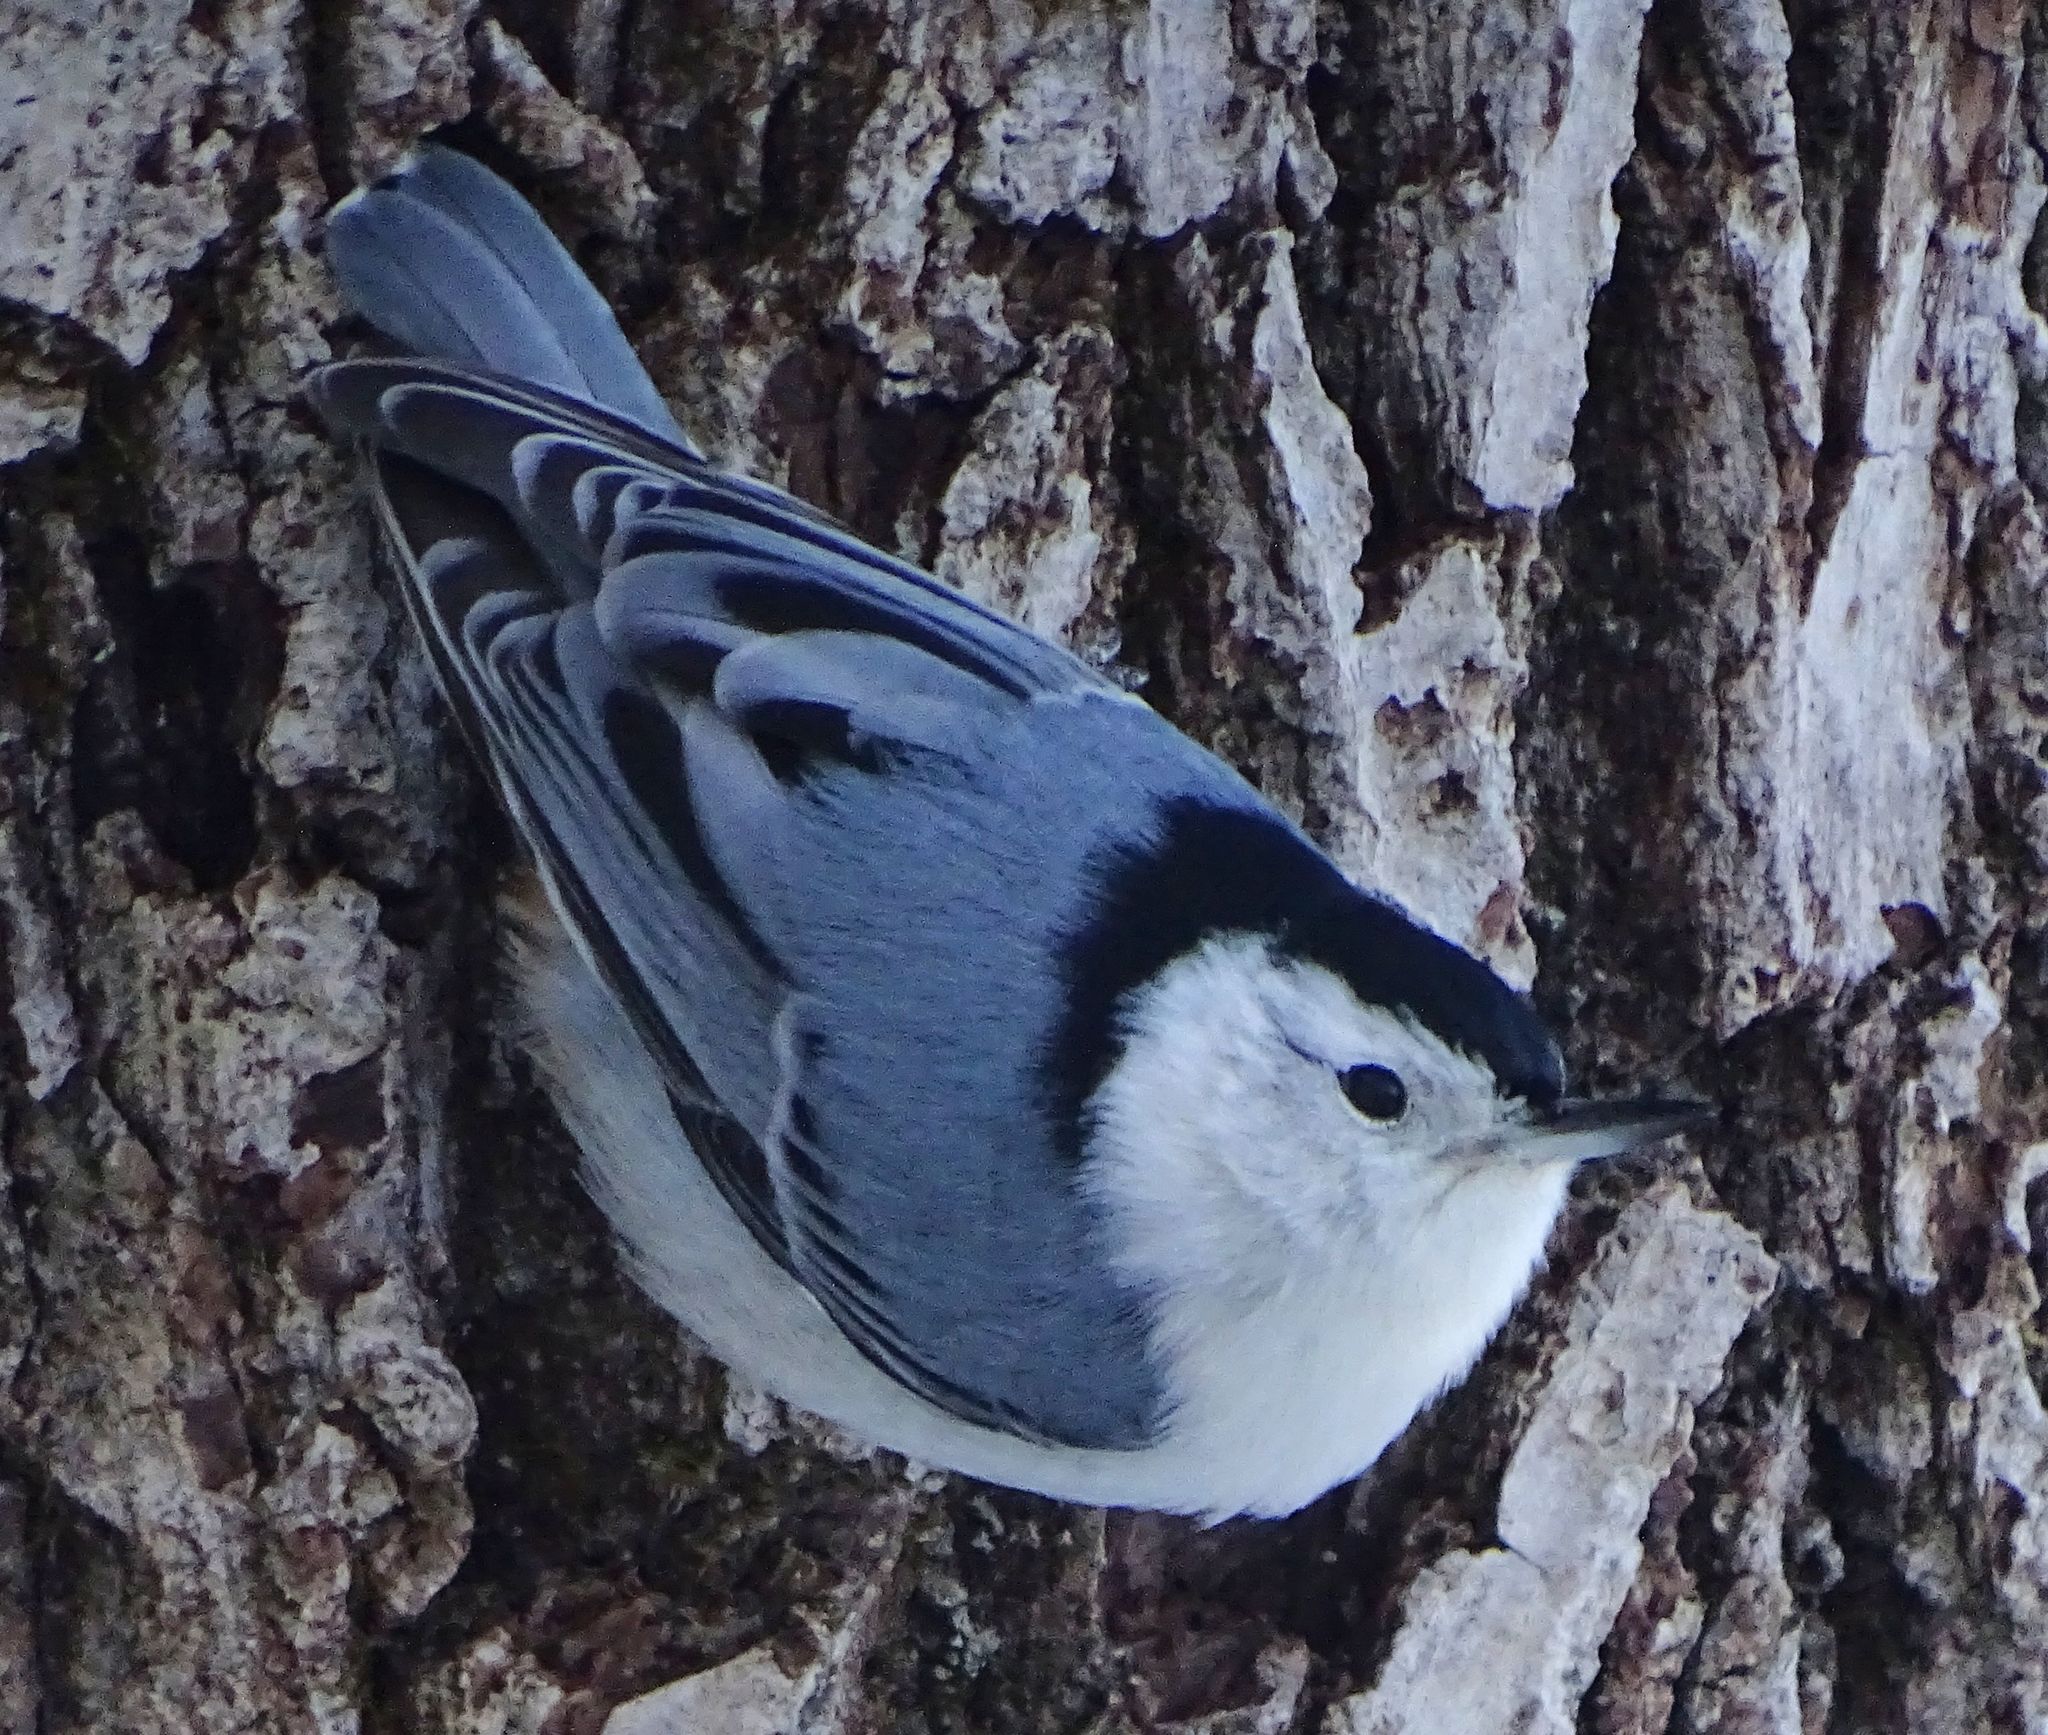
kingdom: Animalia
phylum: Chordata
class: Aves
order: Passeriformes
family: Sittidae
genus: Sitta
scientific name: Sitta carolinensis
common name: White-breasted nuthatch
